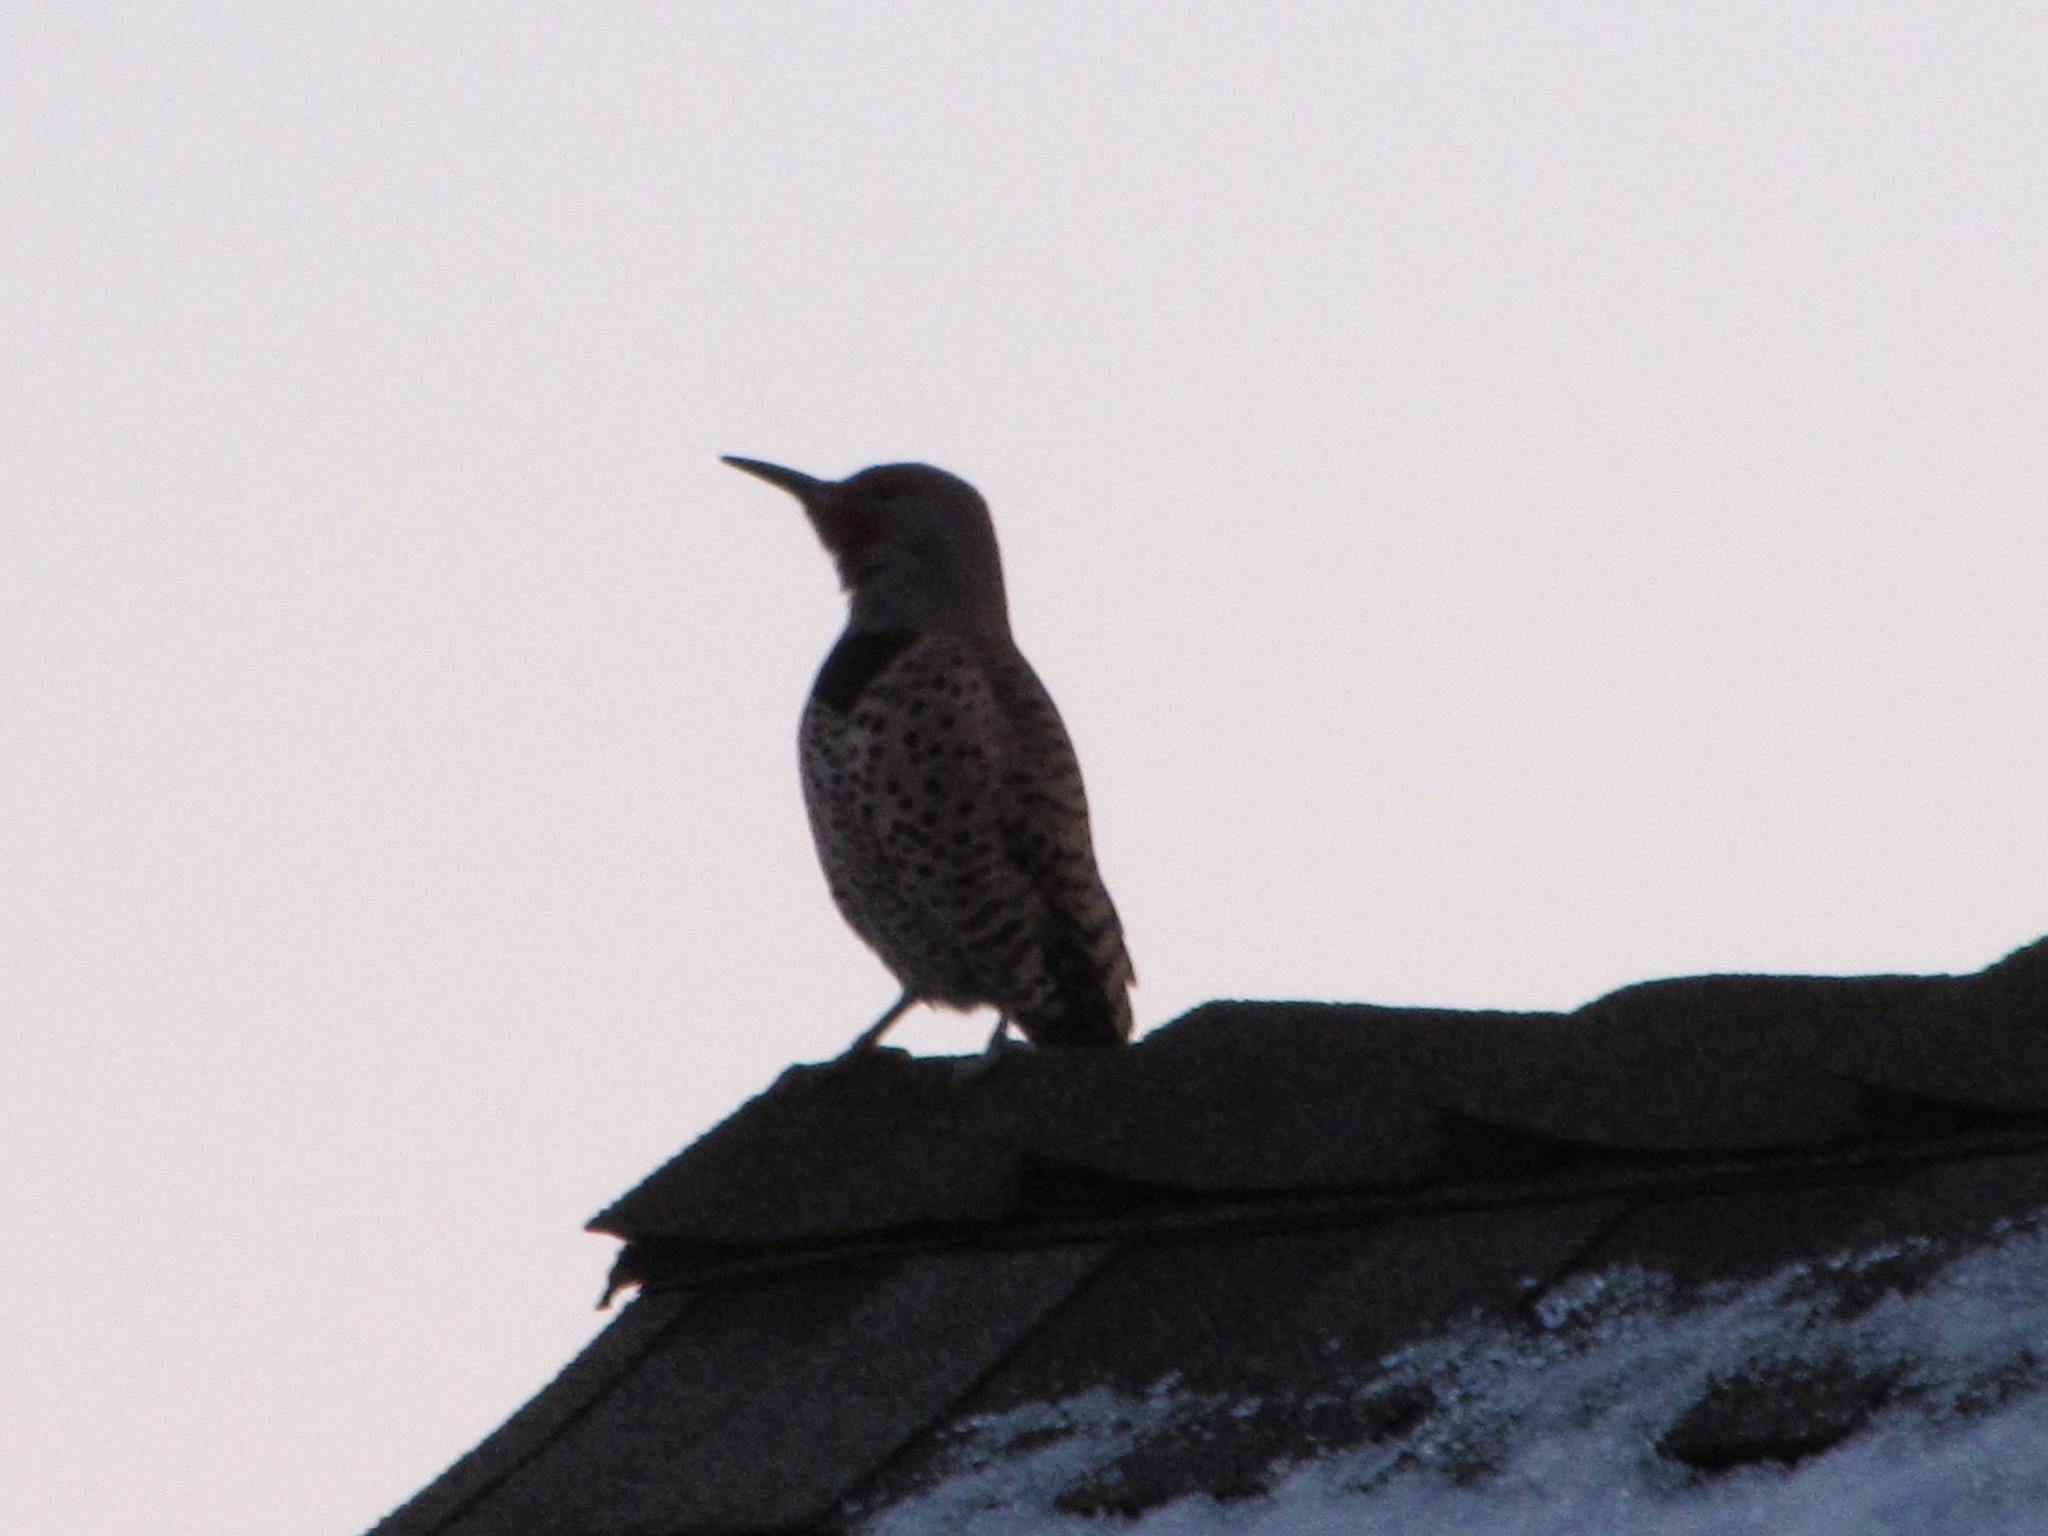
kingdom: Animalia
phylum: Chordata
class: Aves
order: Piciformes
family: Picidae
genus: Colaptes
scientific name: Colaptes auratus
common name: Northern flicker
